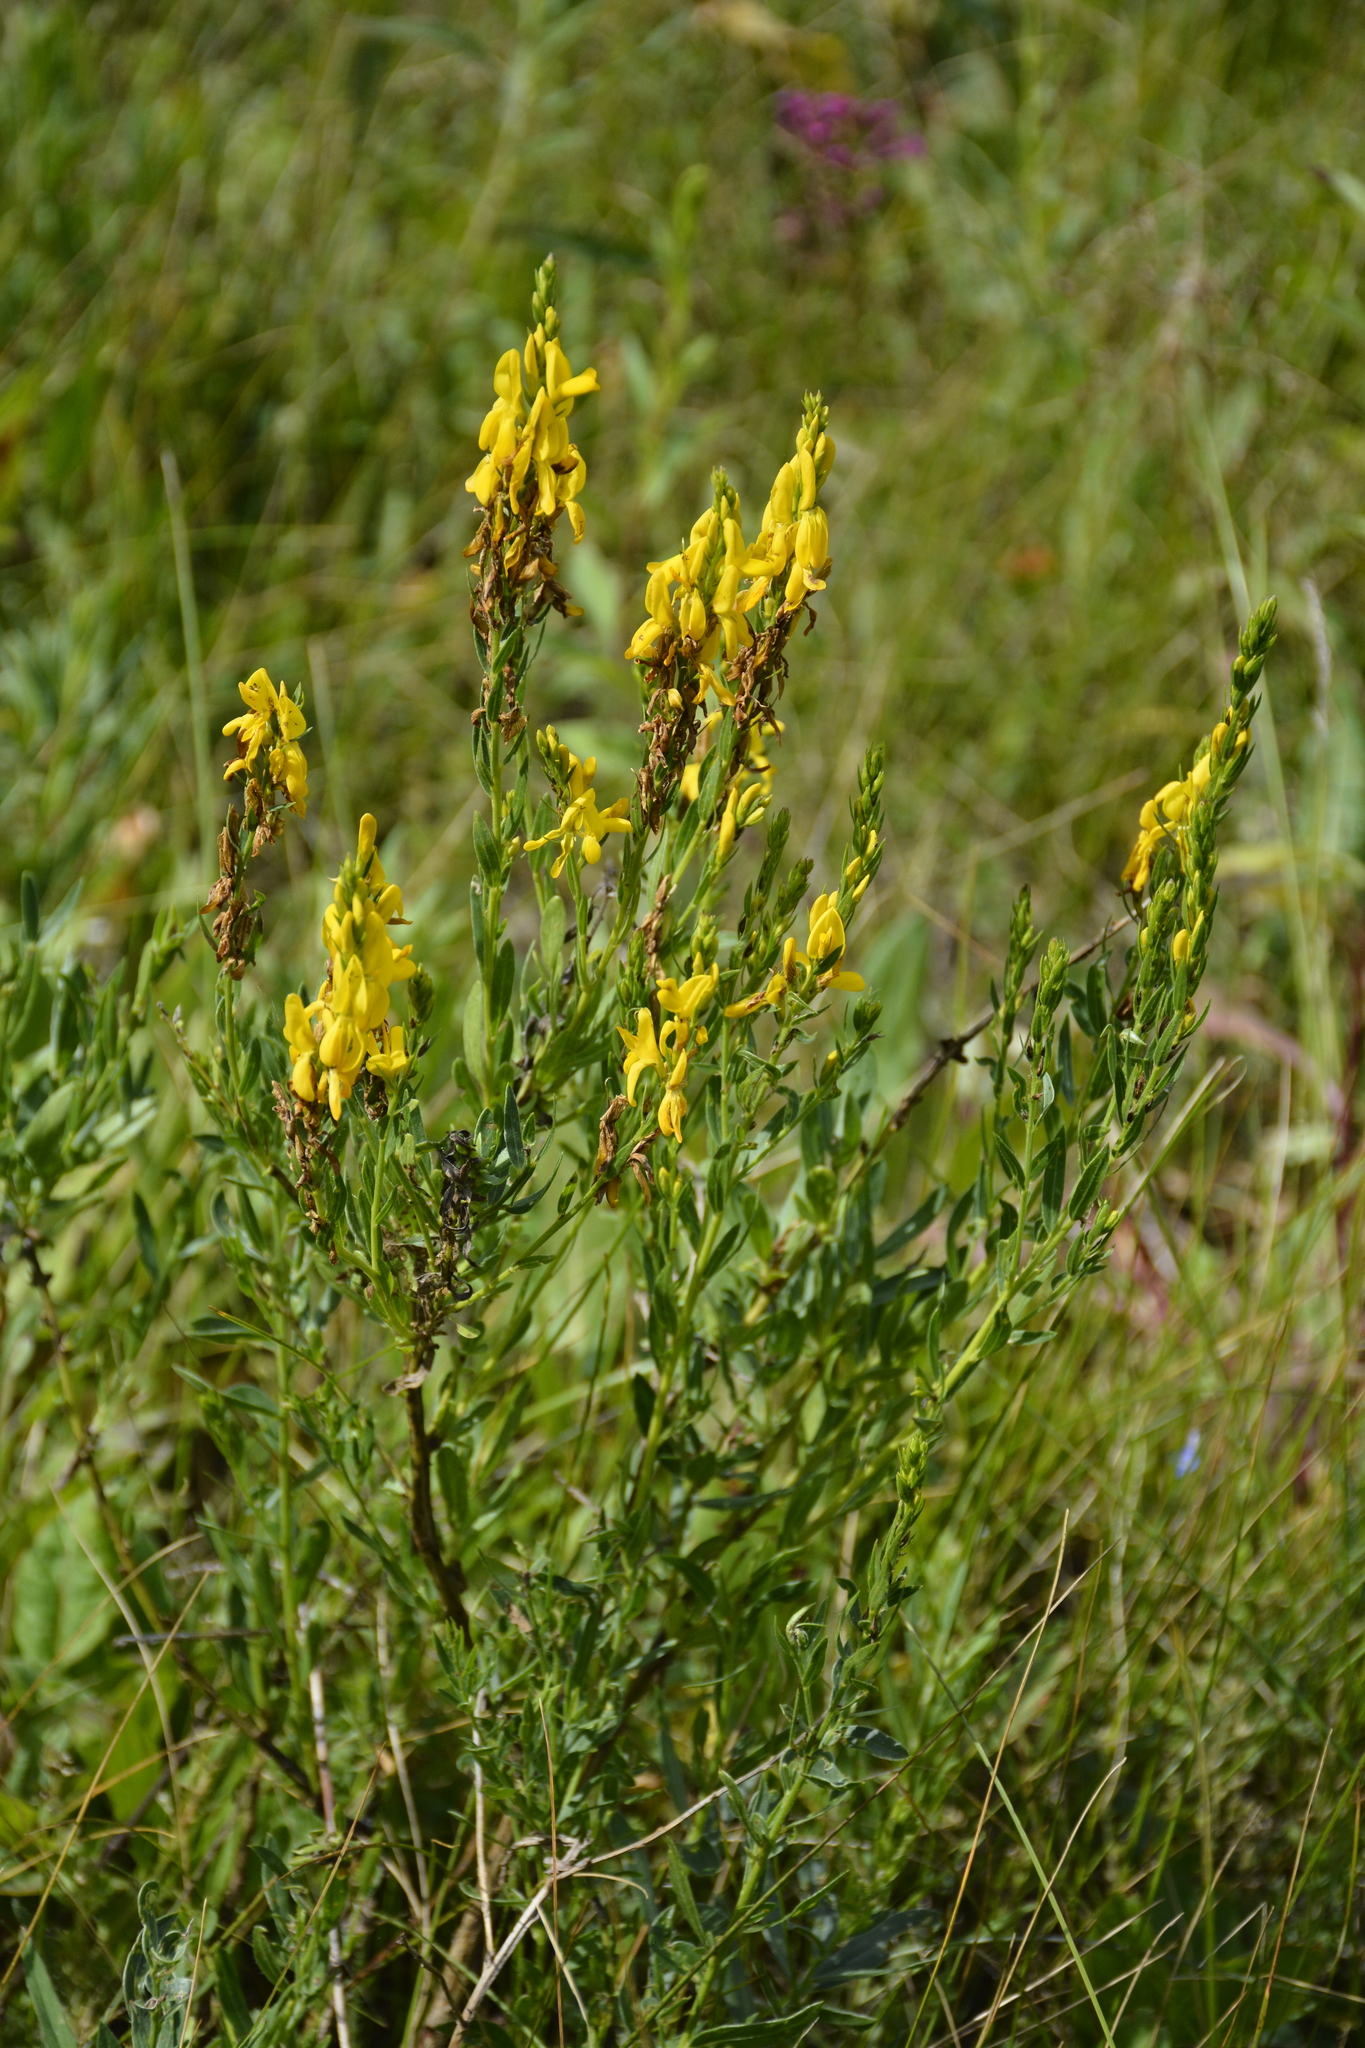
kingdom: Plantae
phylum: Tracheophyta
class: Magnoliopsida
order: Fabales
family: Fabaceae
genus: Genista
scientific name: Genista tinctoria
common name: Dyer's greenweed
